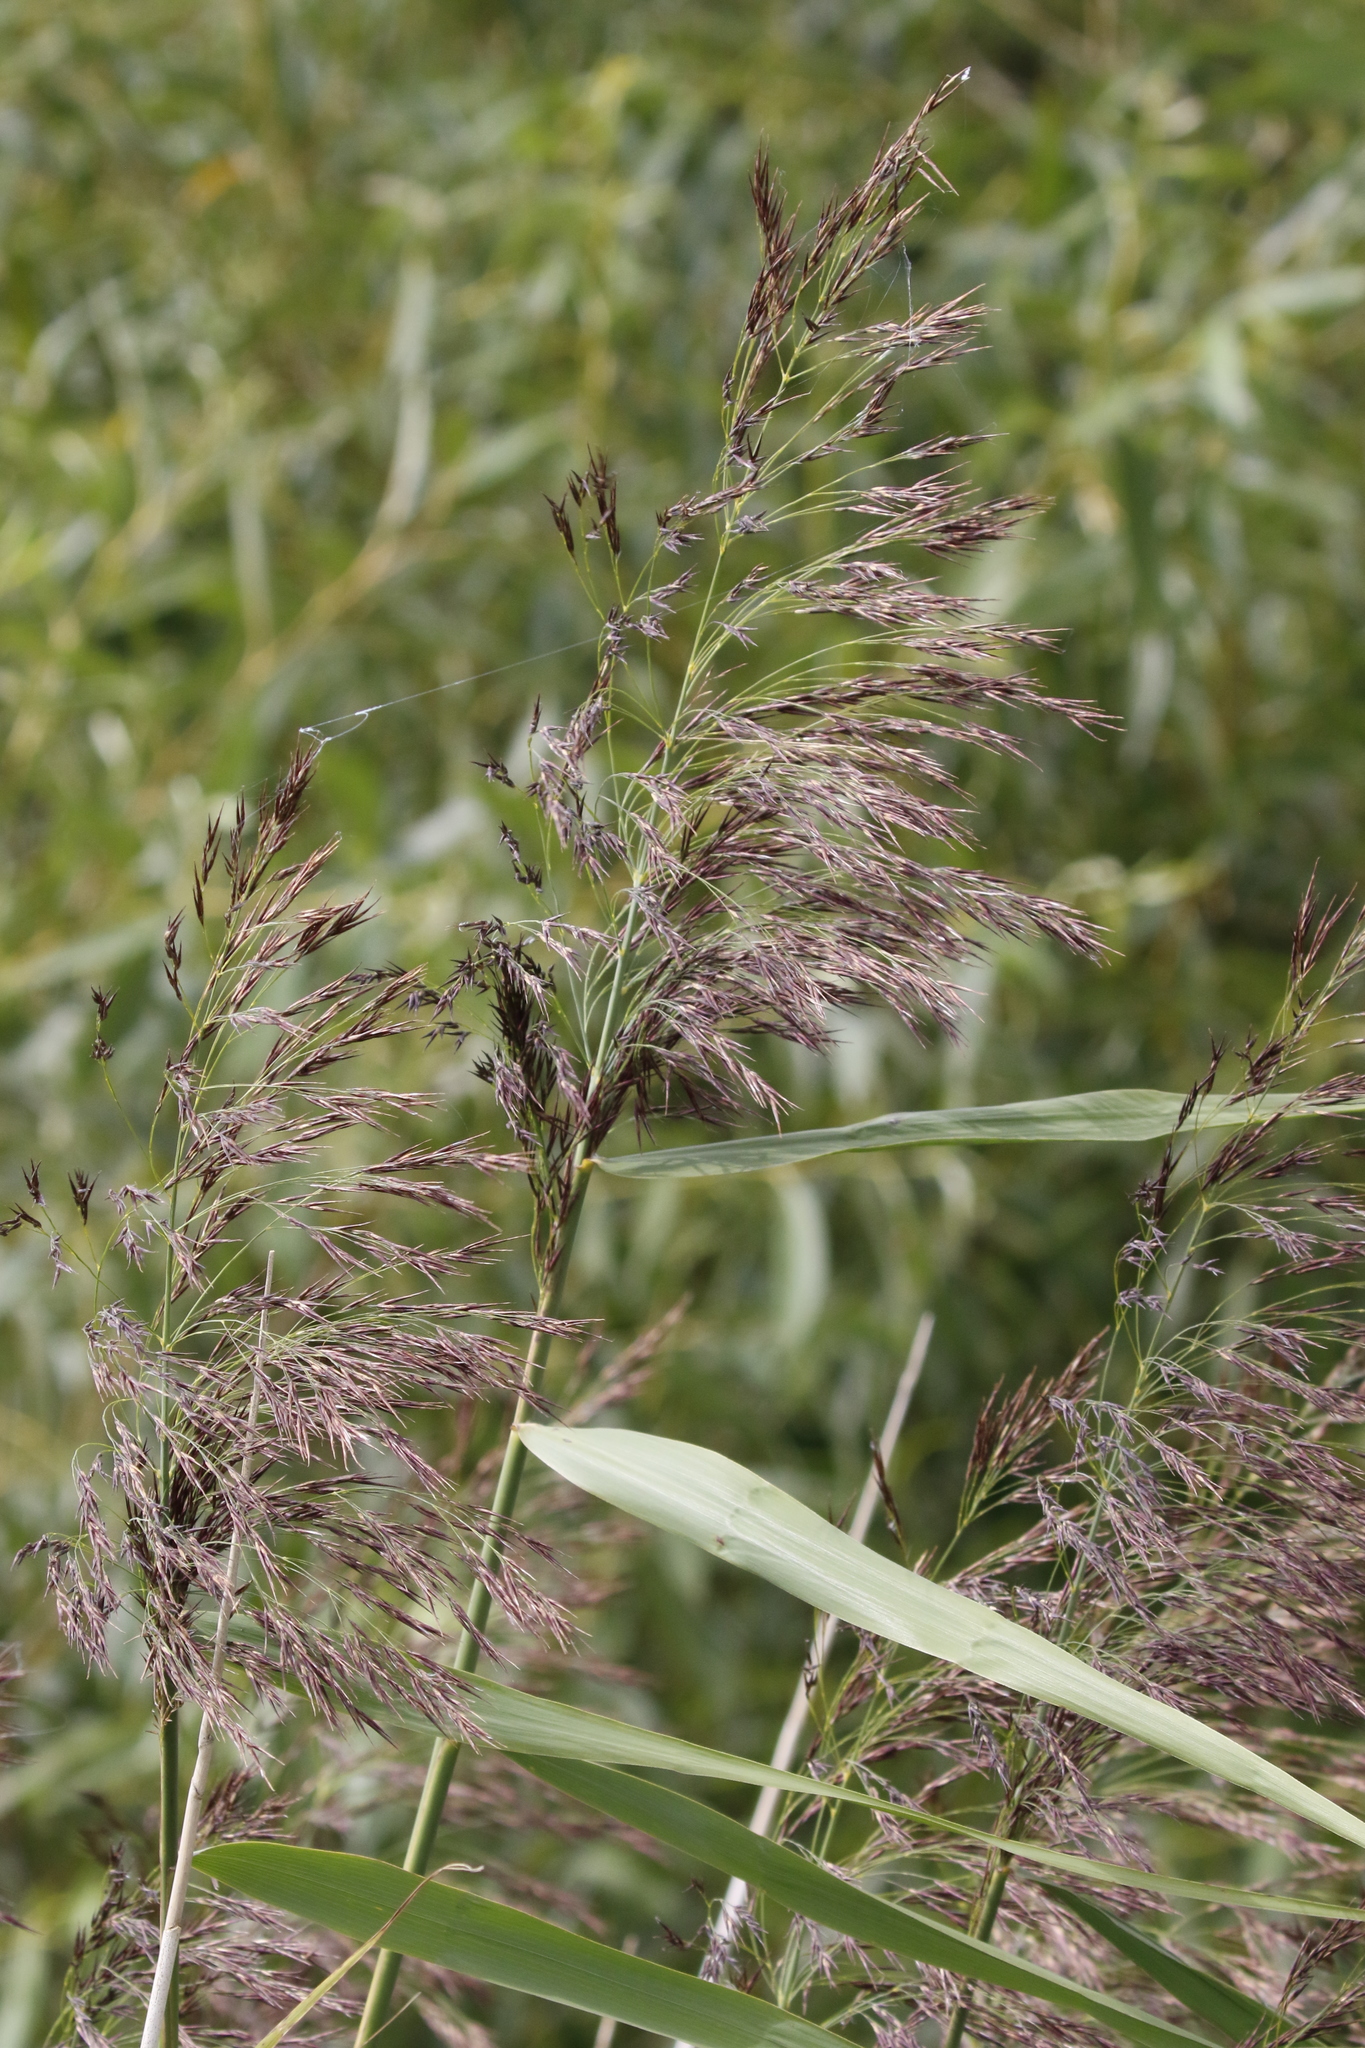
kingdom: Plantae
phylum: Tracheophyta
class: Liliopsida
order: Poales
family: Poaceae
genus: Phragmites
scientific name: Phragmites australis
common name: Common reed
